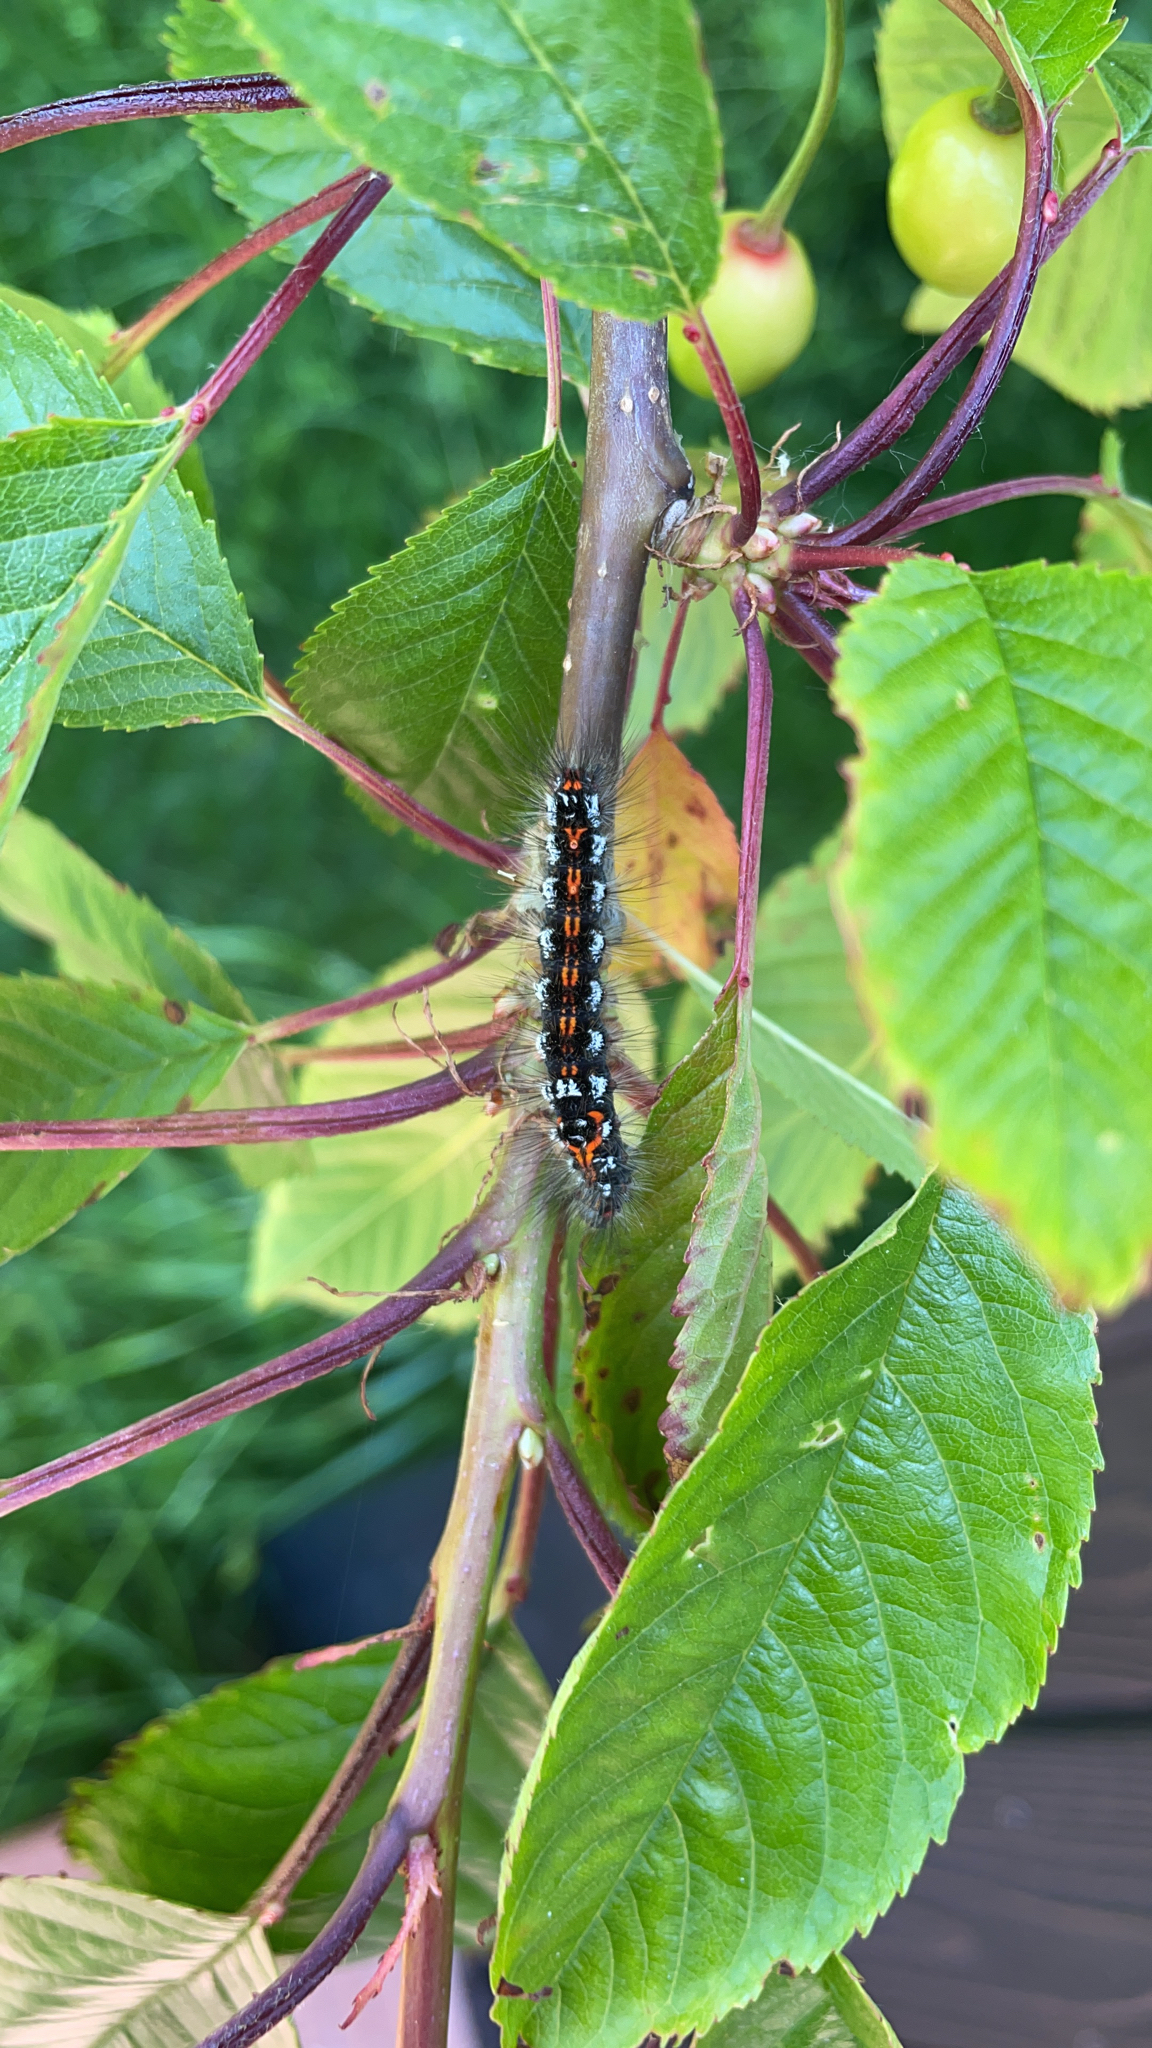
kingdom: Animalia
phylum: Arthropoda
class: Insecta
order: Lepidoptera
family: Erebidae
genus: Sphrageidus
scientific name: Sphrageidus similis
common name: Yellow-tail
